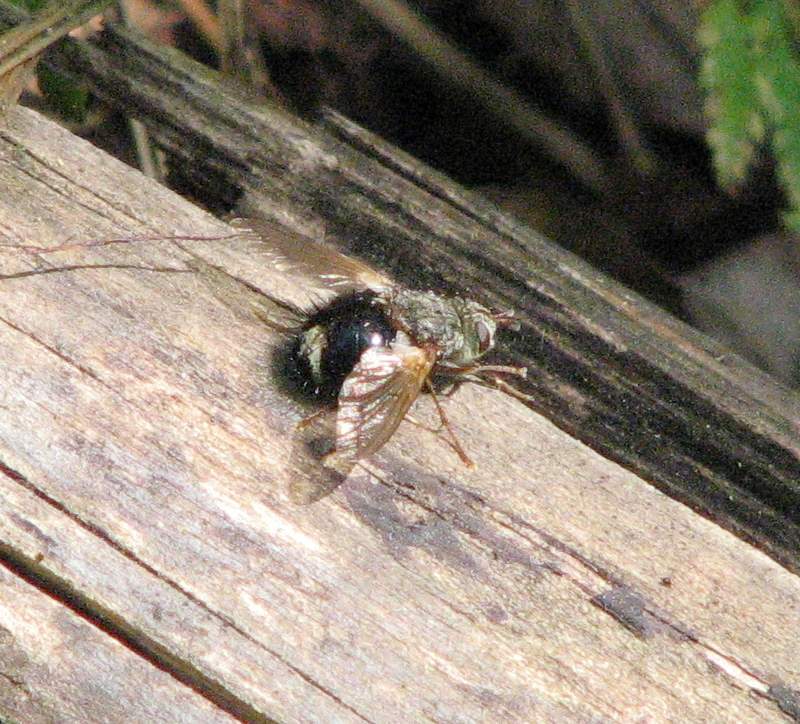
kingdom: Animalia
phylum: Arthropoda
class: Insecta
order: Diptera
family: Tachinidae
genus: Epalpus
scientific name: Epalpus signifer
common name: Early tachinid fly
